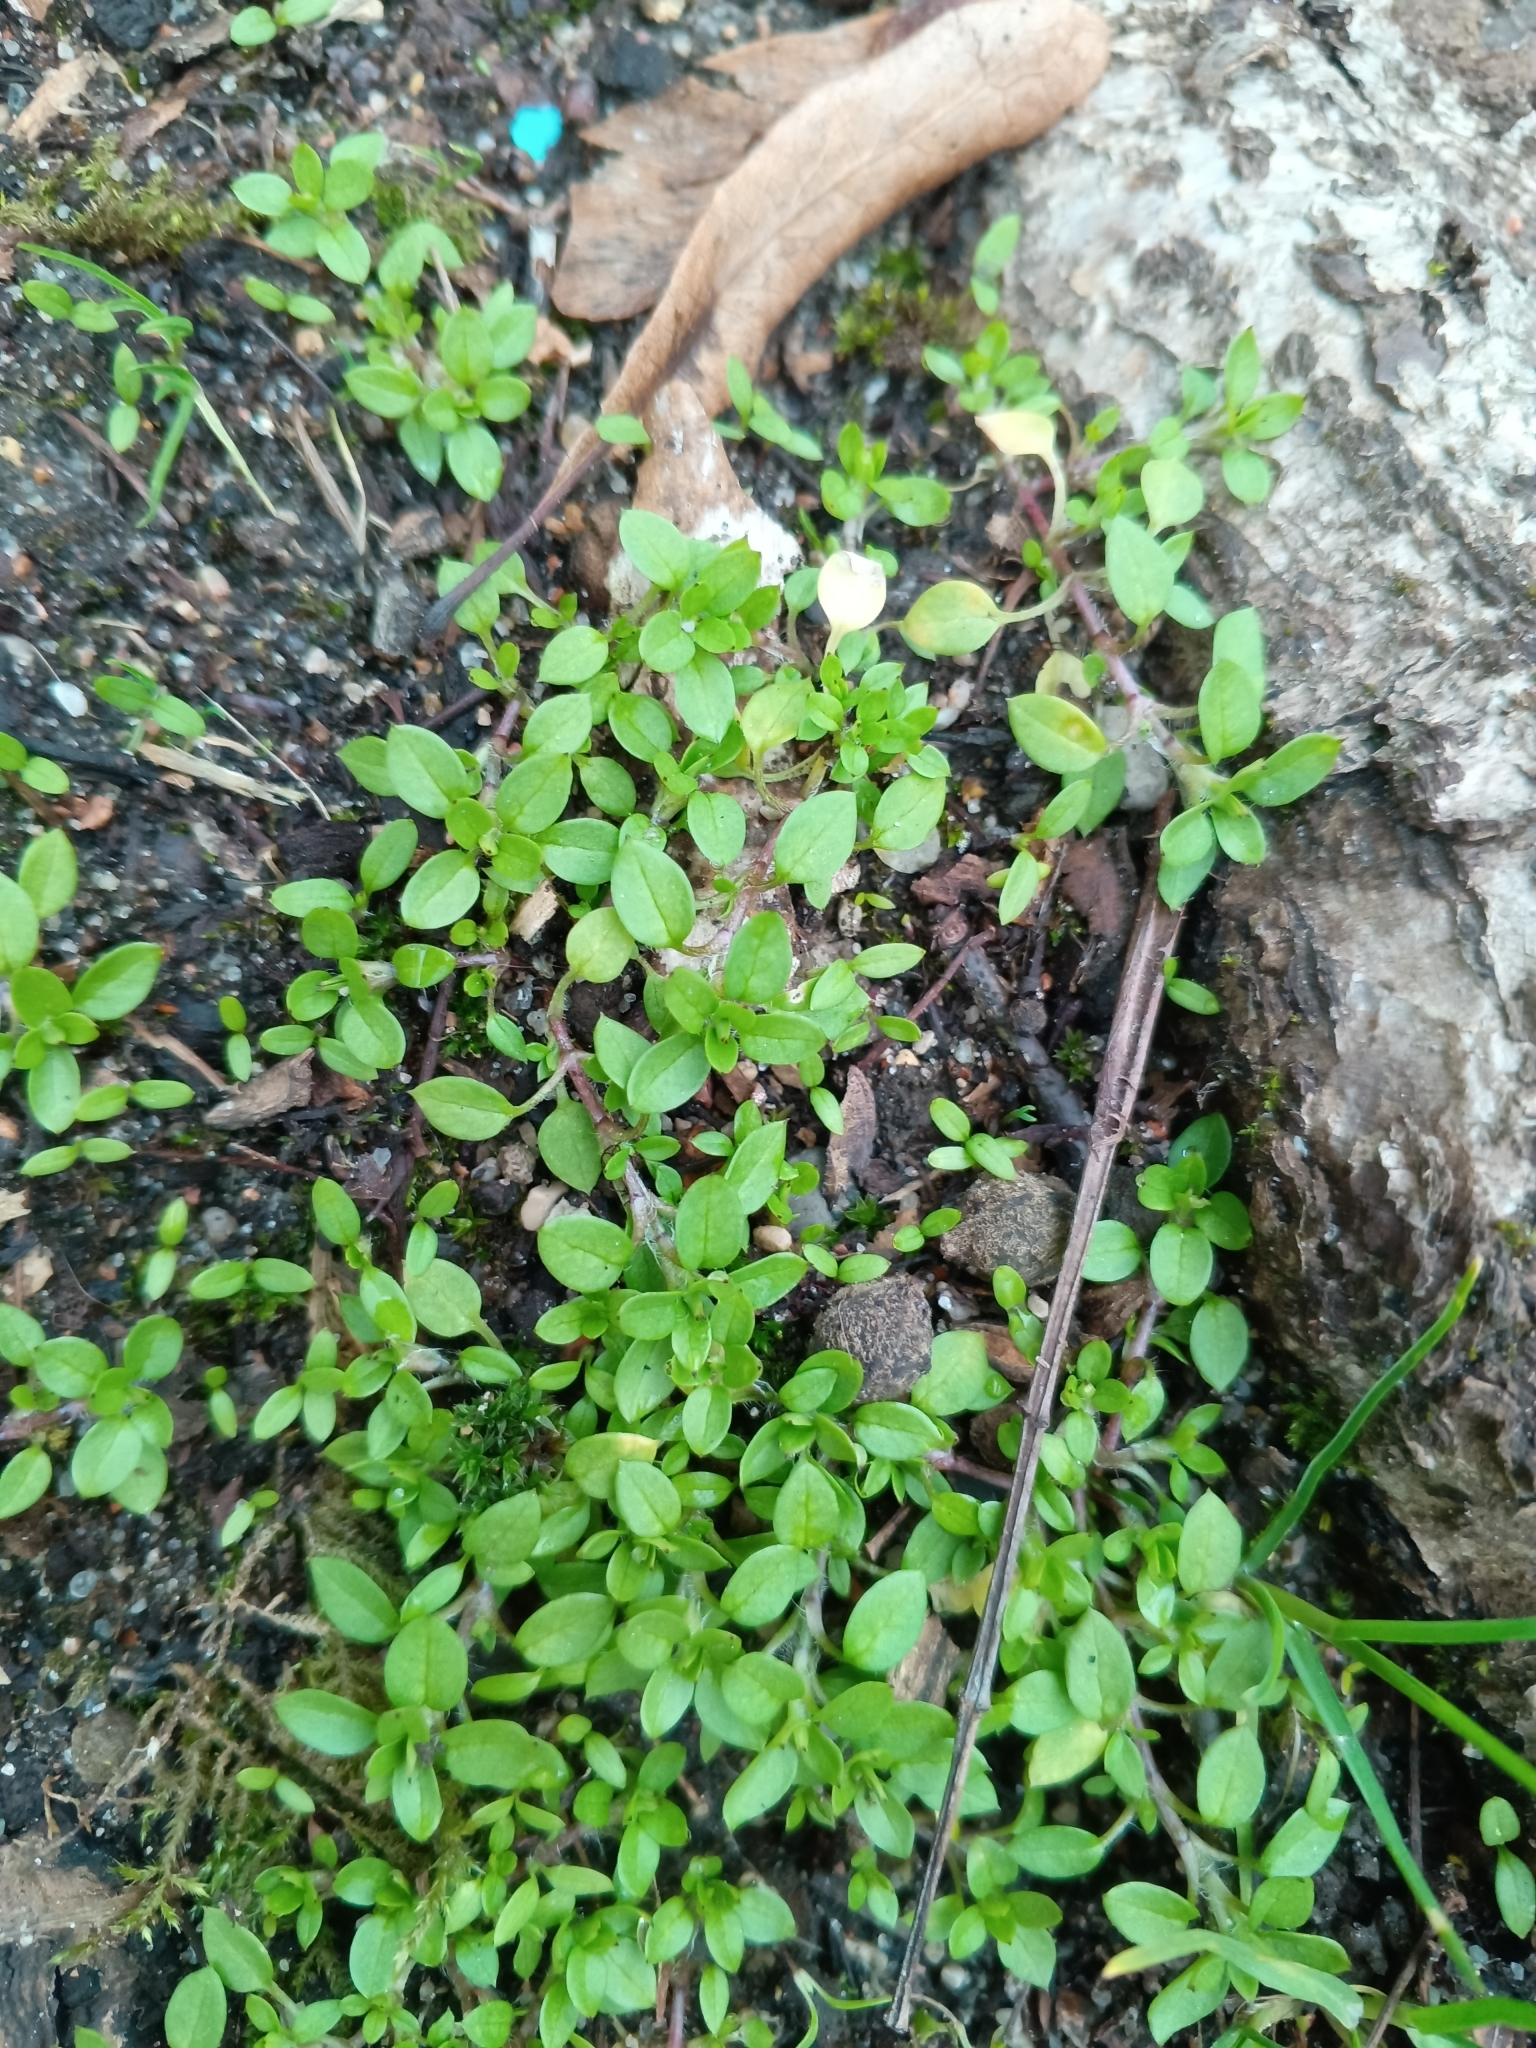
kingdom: Plantae
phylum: Tracheophyta
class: Magnoliopsida
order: Caryophyllales
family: Caryophyllaceae
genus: Stellaria
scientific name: Stellaria media
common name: Common chickweed
